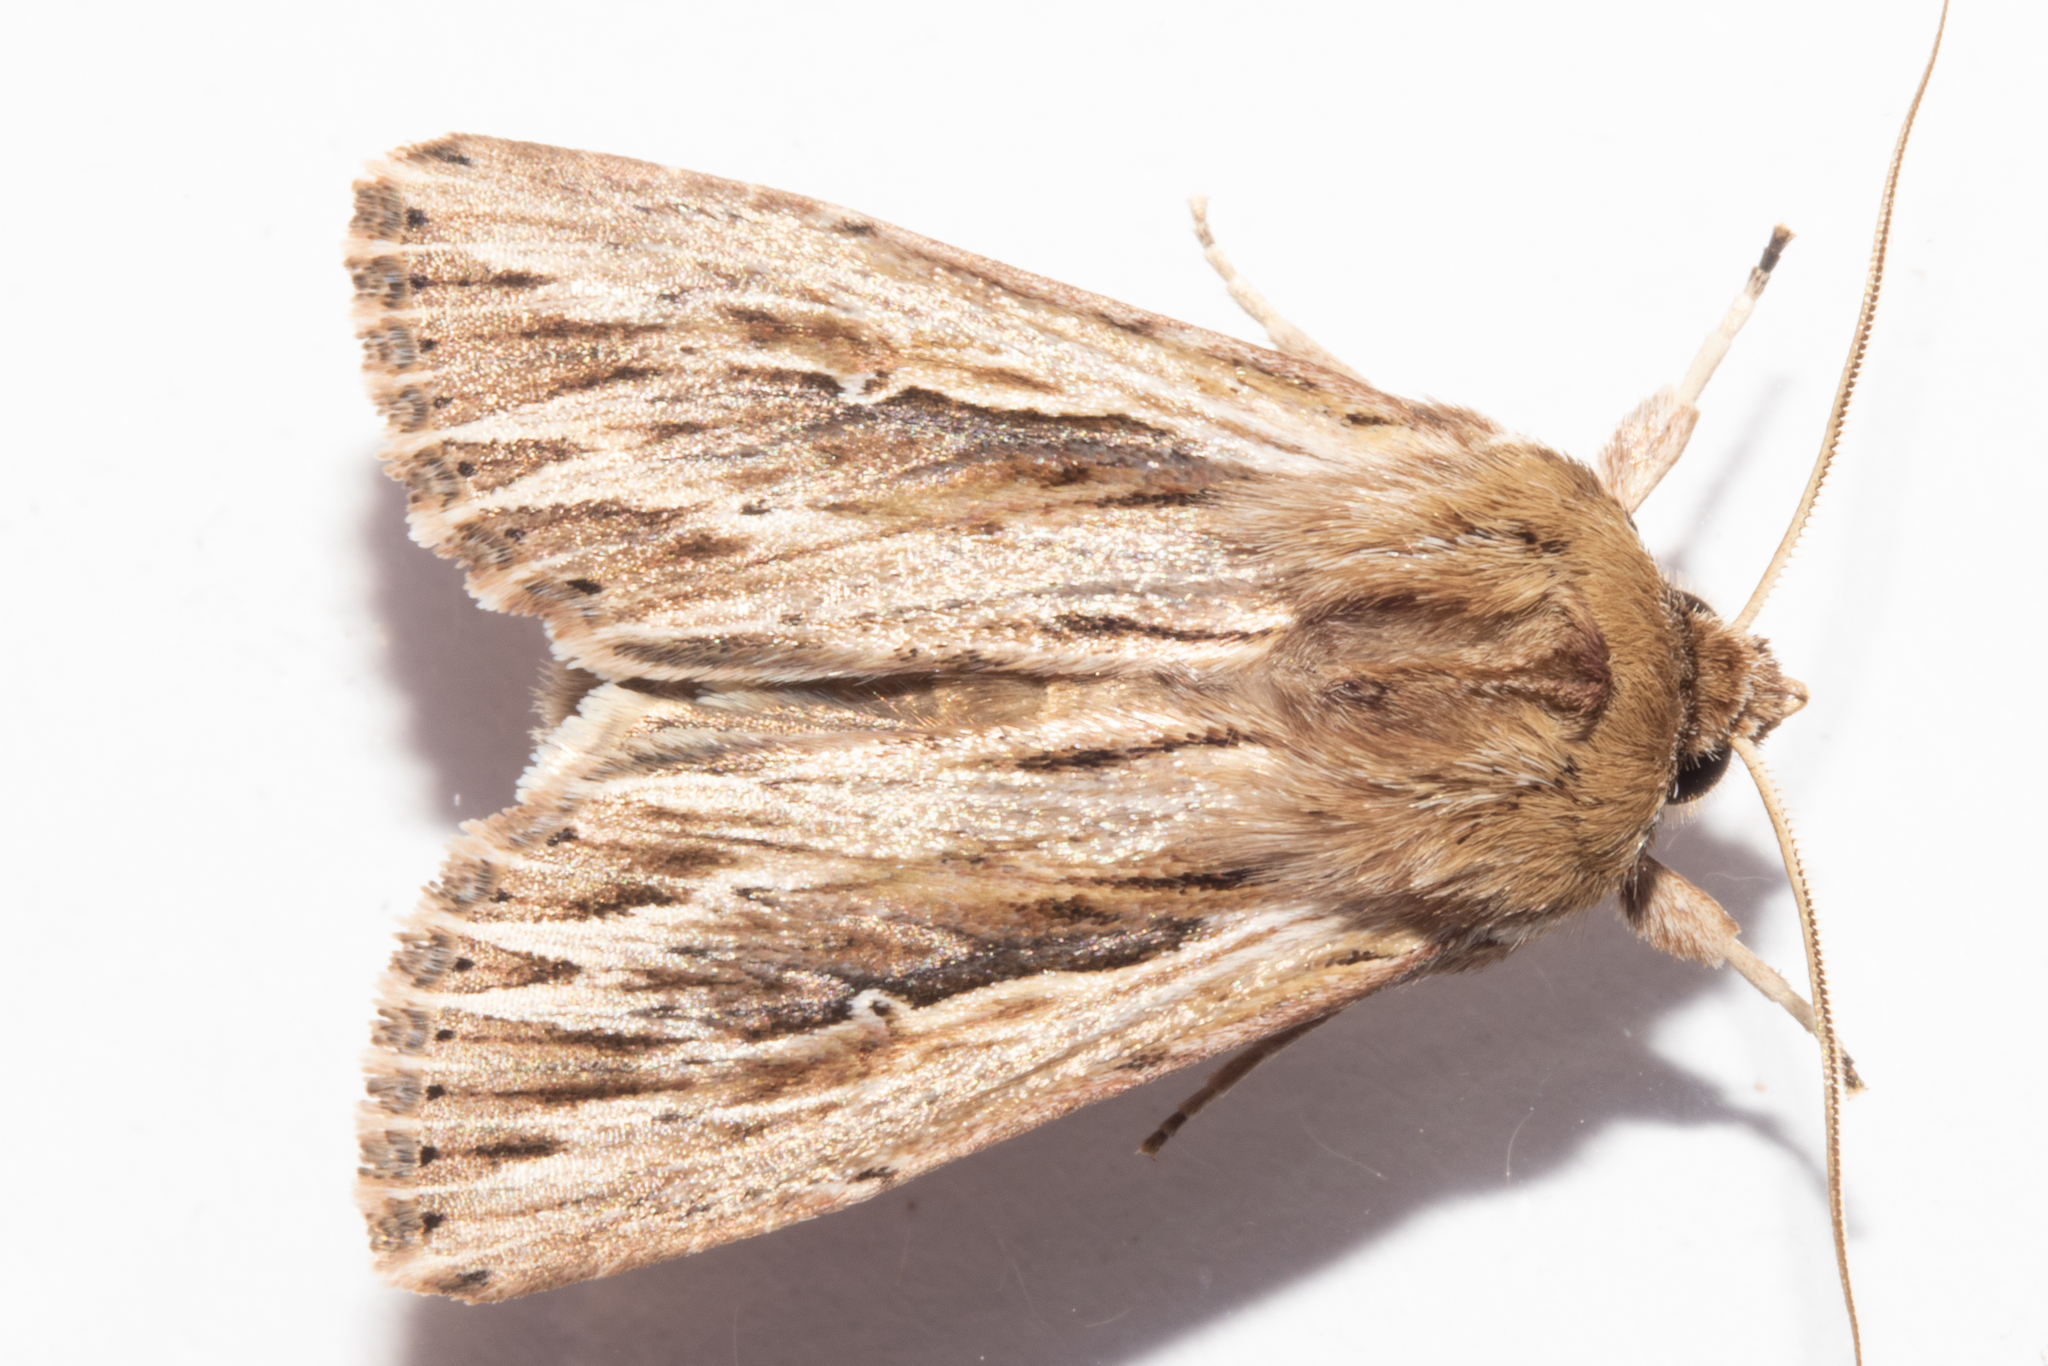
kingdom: Animalia
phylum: Arthropoda
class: Insecta
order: Lepidoptera
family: Noctuidae
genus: Persectania
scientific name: Persectania aversa
